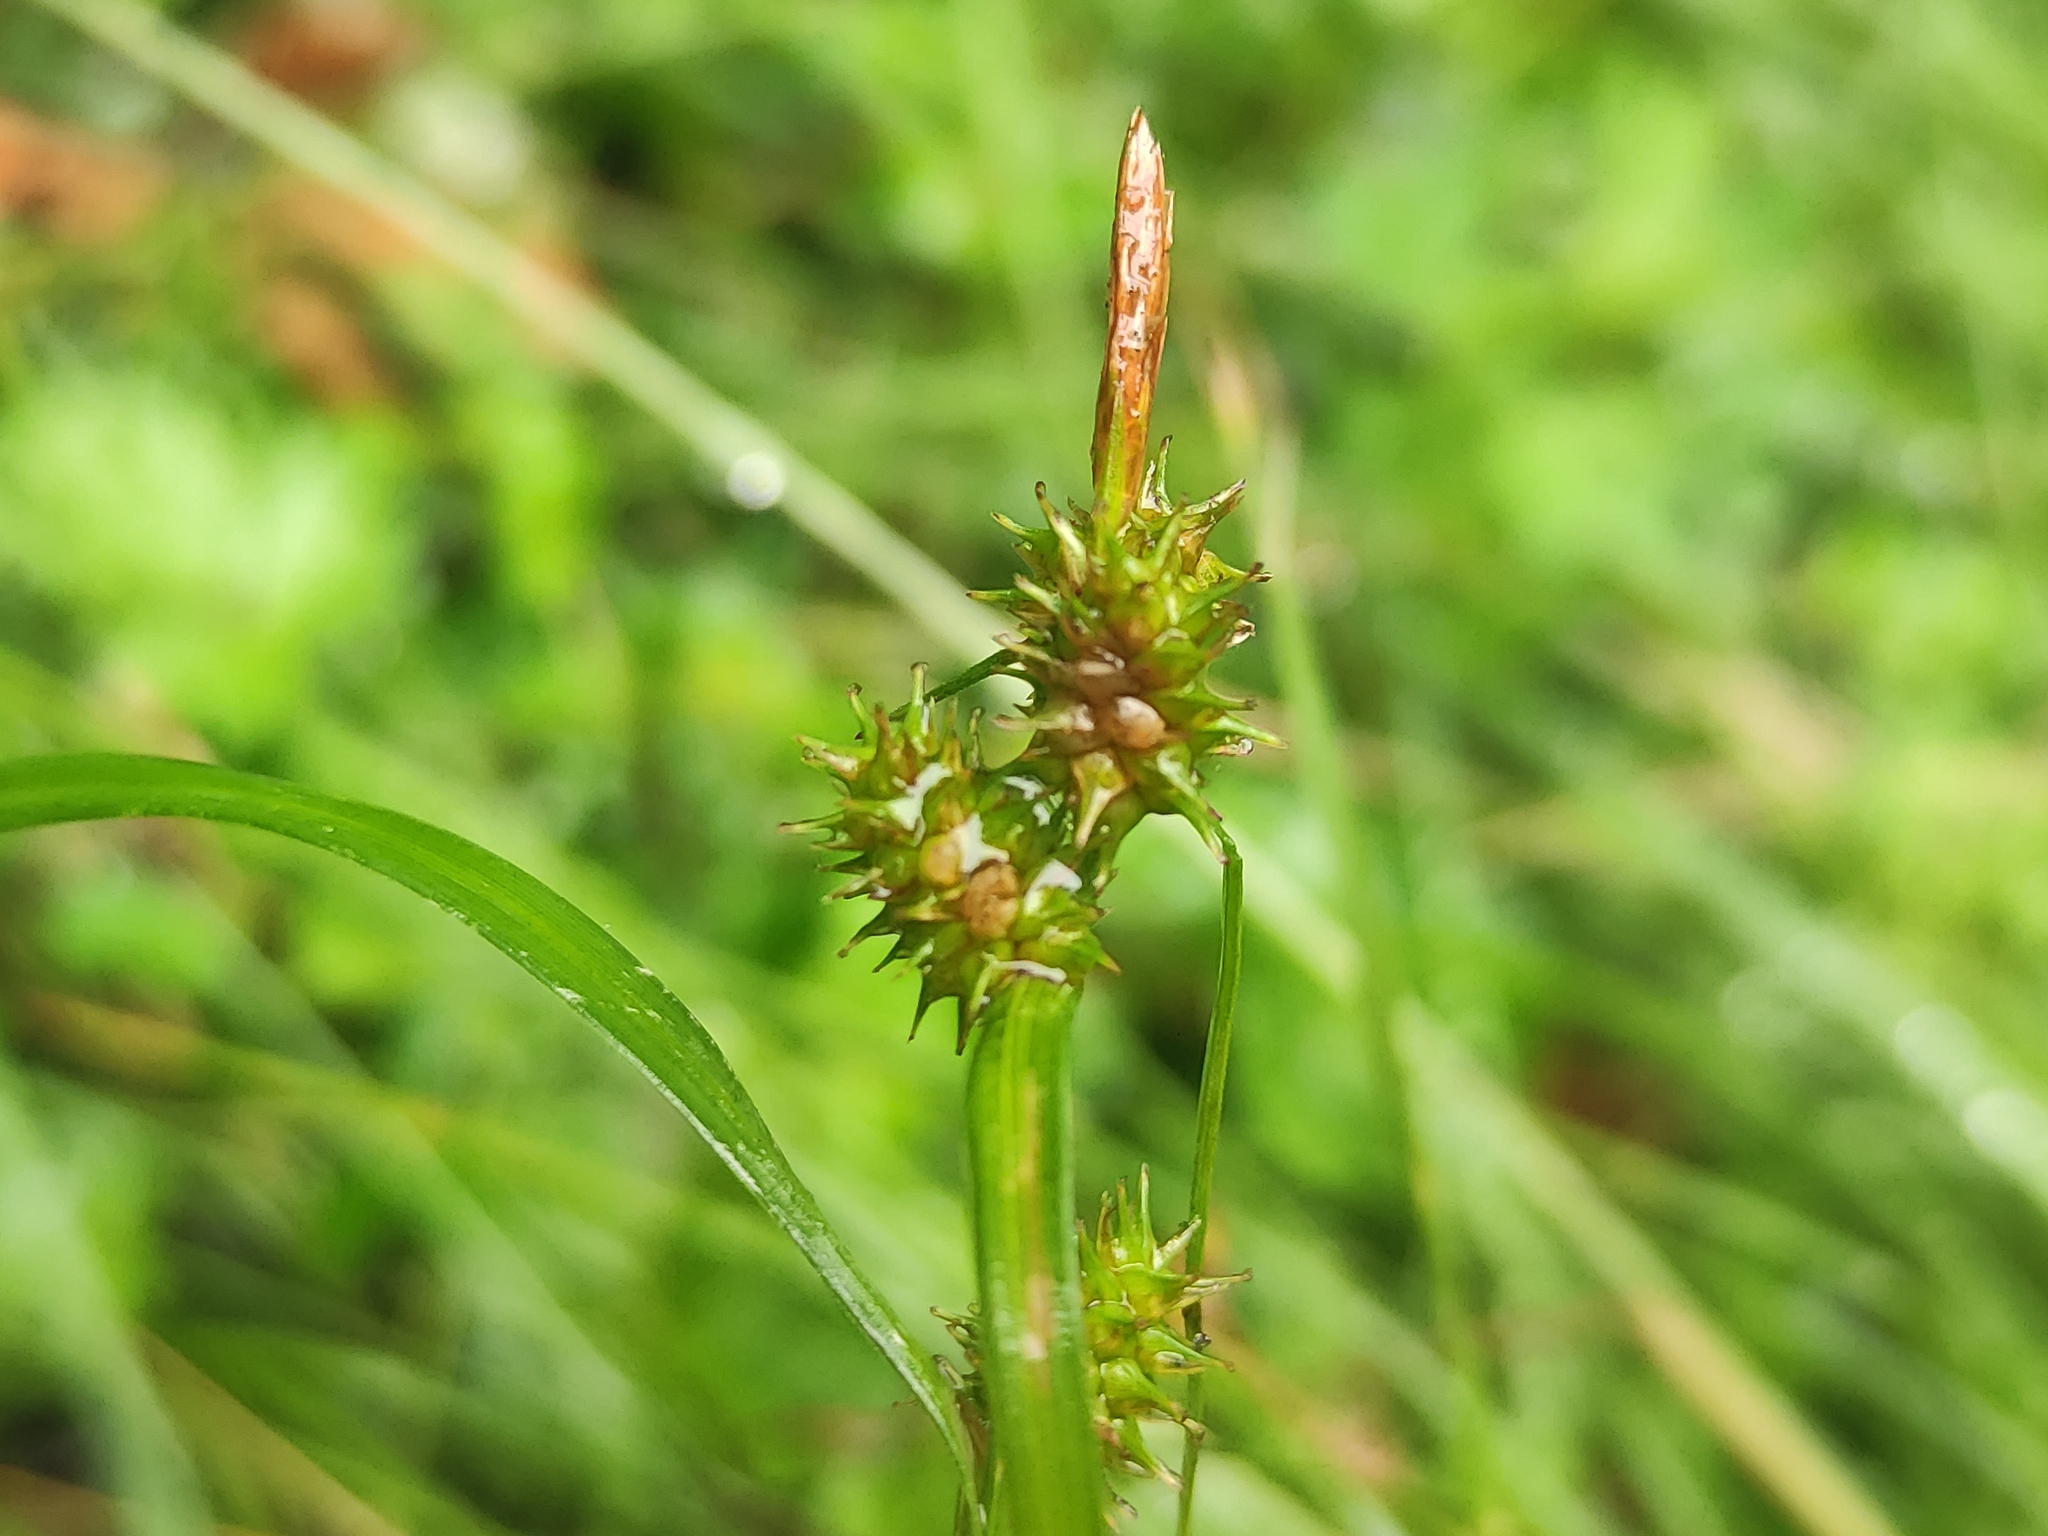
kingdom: Plantae
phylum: Tracheophyta
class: Liliopsida
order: Poales
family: Cyperaceae
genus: Carex
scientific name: Carex demissa
